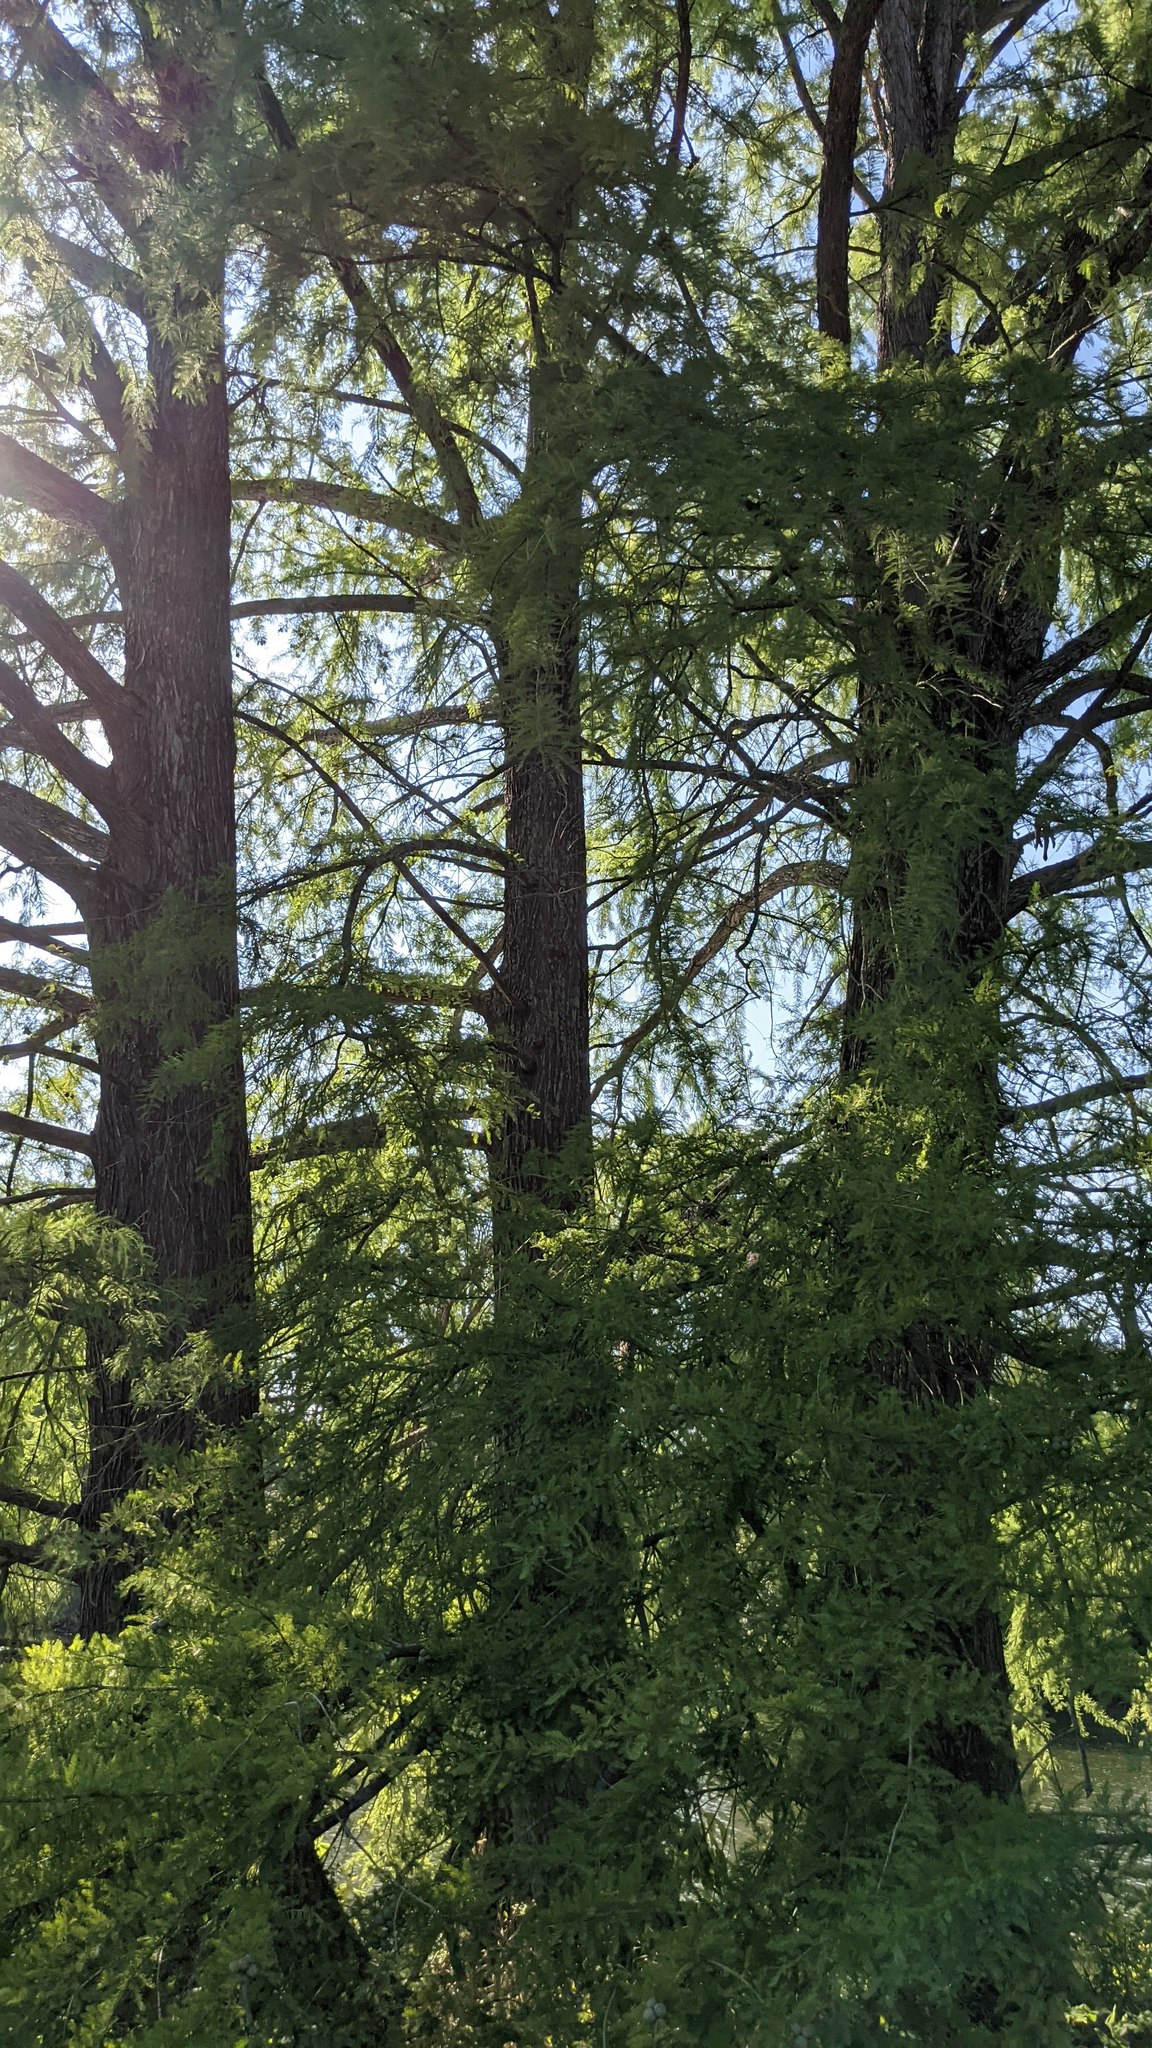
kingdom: Plantae
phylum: Tracheophyta
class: Pinopsida
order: Pinales
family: Cupressaceae
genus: Taxodium
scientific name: Taxodium distichum
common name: Bald cypress
